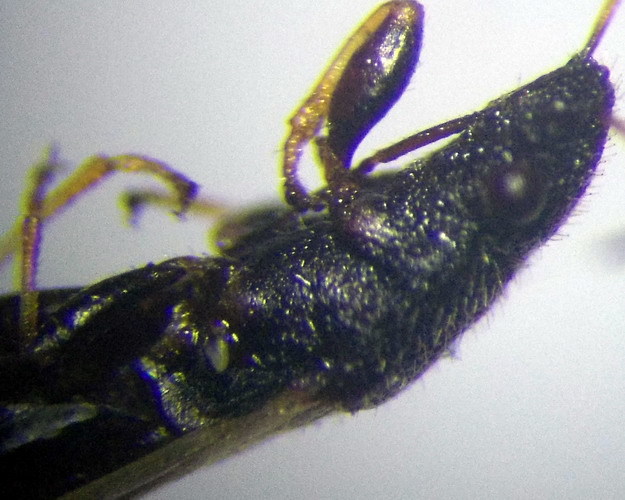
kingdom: Animalia
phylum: Arthropoda
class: Insecta
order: Hemiptera
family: Oxycarenidae
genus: Metopoplax
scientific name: Metopoplax origani
